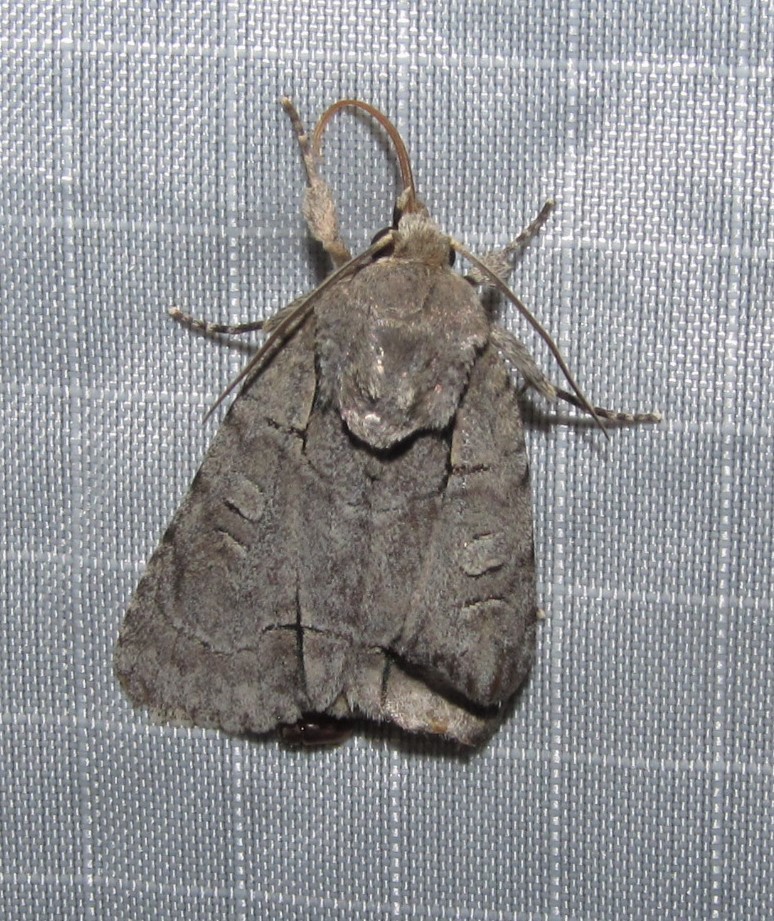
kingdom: Animalia
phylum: Arthropoda
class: Insecta
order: Lepidoptera
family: Noctuidae
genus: Acronicta
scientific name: Acronicta interrupta
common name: Interrupted dagger
